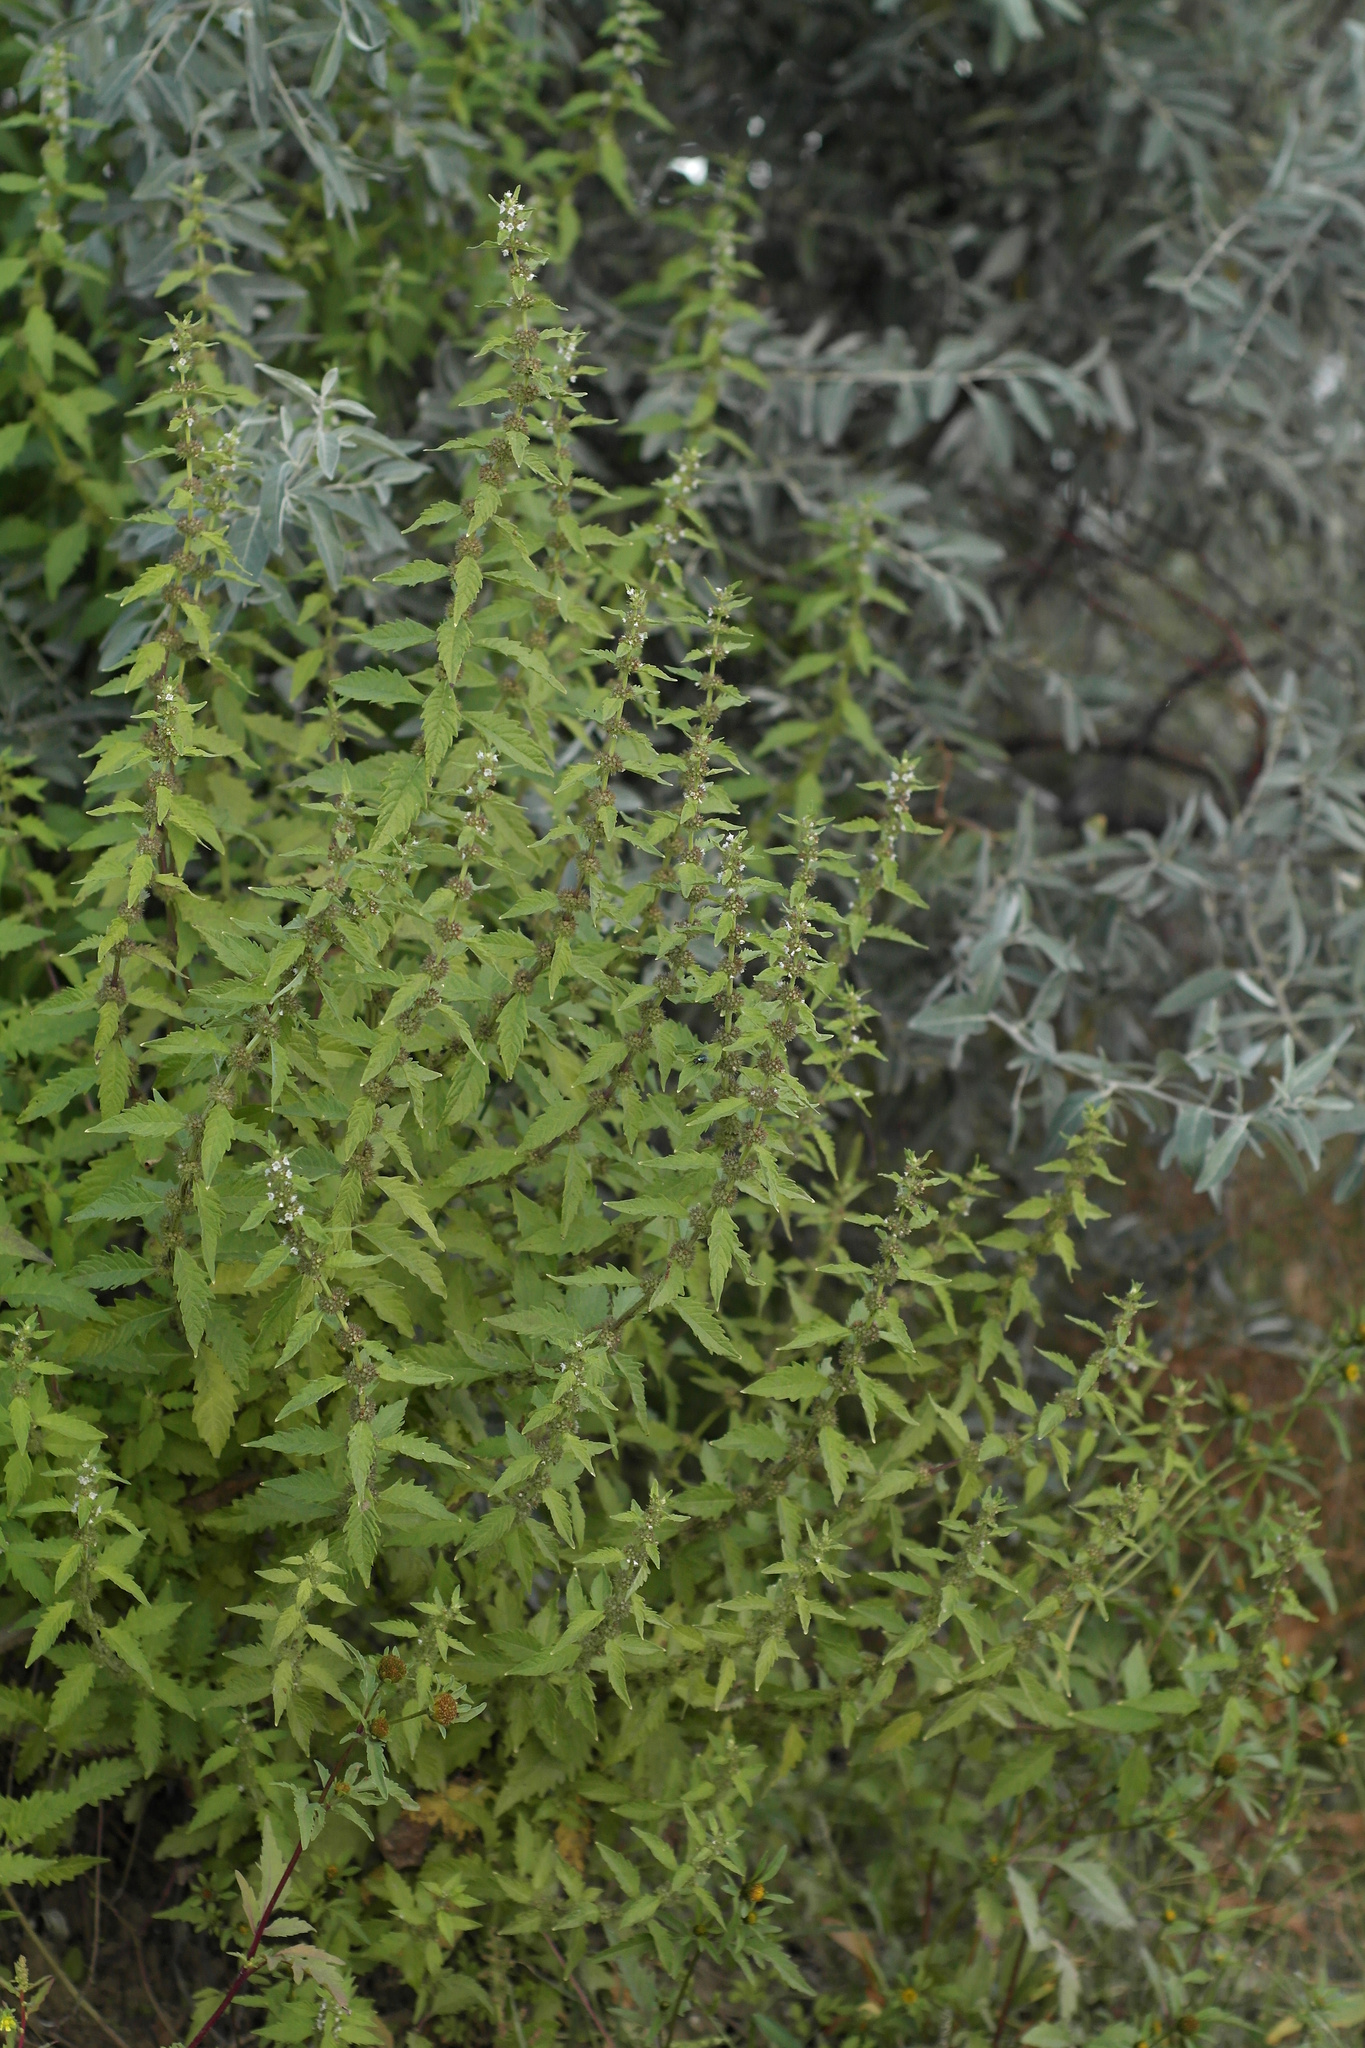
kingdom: Plantae
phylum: Tracheophyta
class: Magnoliopsida
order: Lamiales
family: Lamiaceae
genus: Lycopus
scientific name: Lycopus europaeus
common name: European bugleweed
